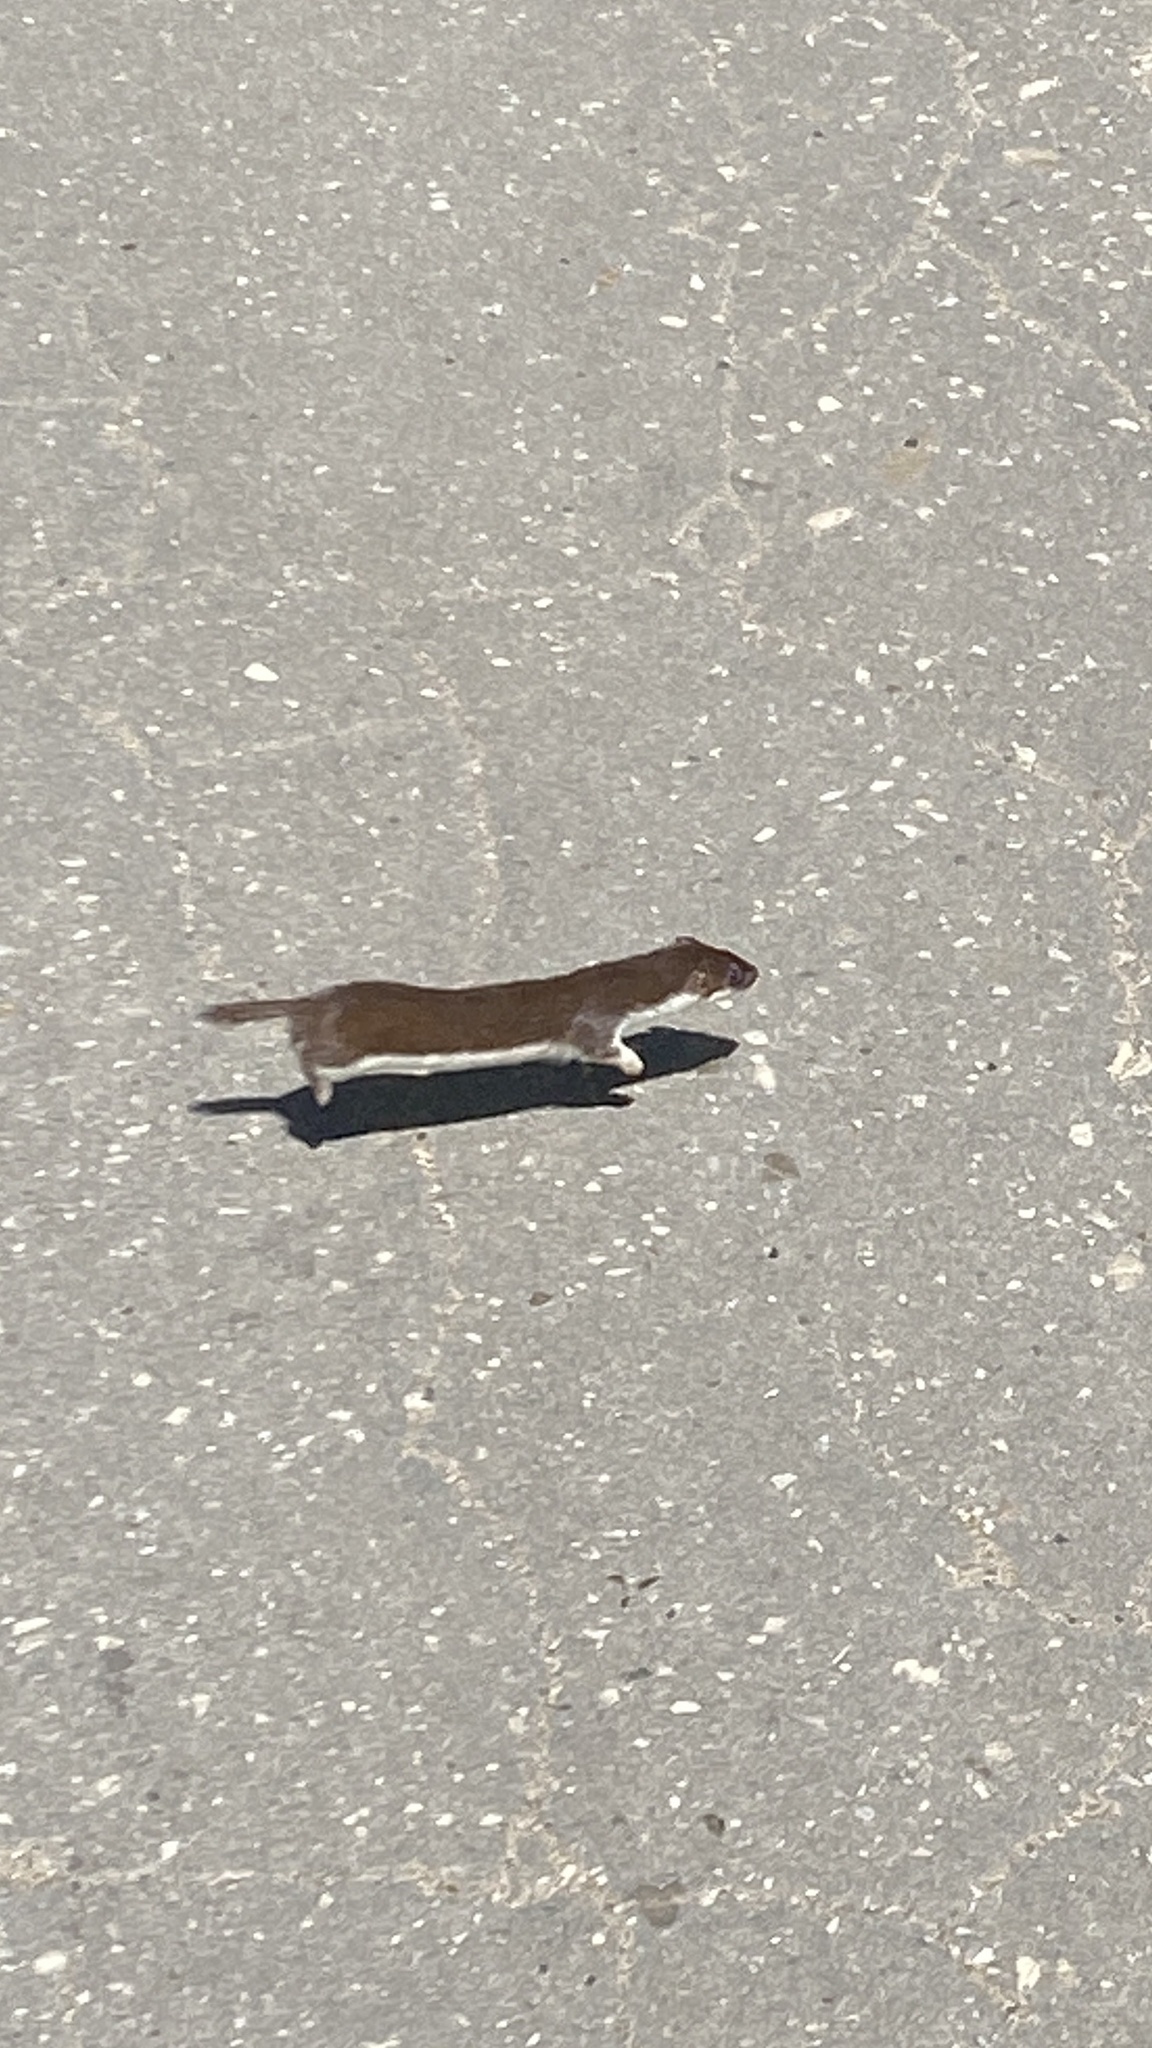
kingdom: Animalia
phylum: Chordata
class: Mammalia
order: Carnivora
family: Mustelidae
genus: Mustela
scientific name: Mustela nivalis
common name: Least weasel
